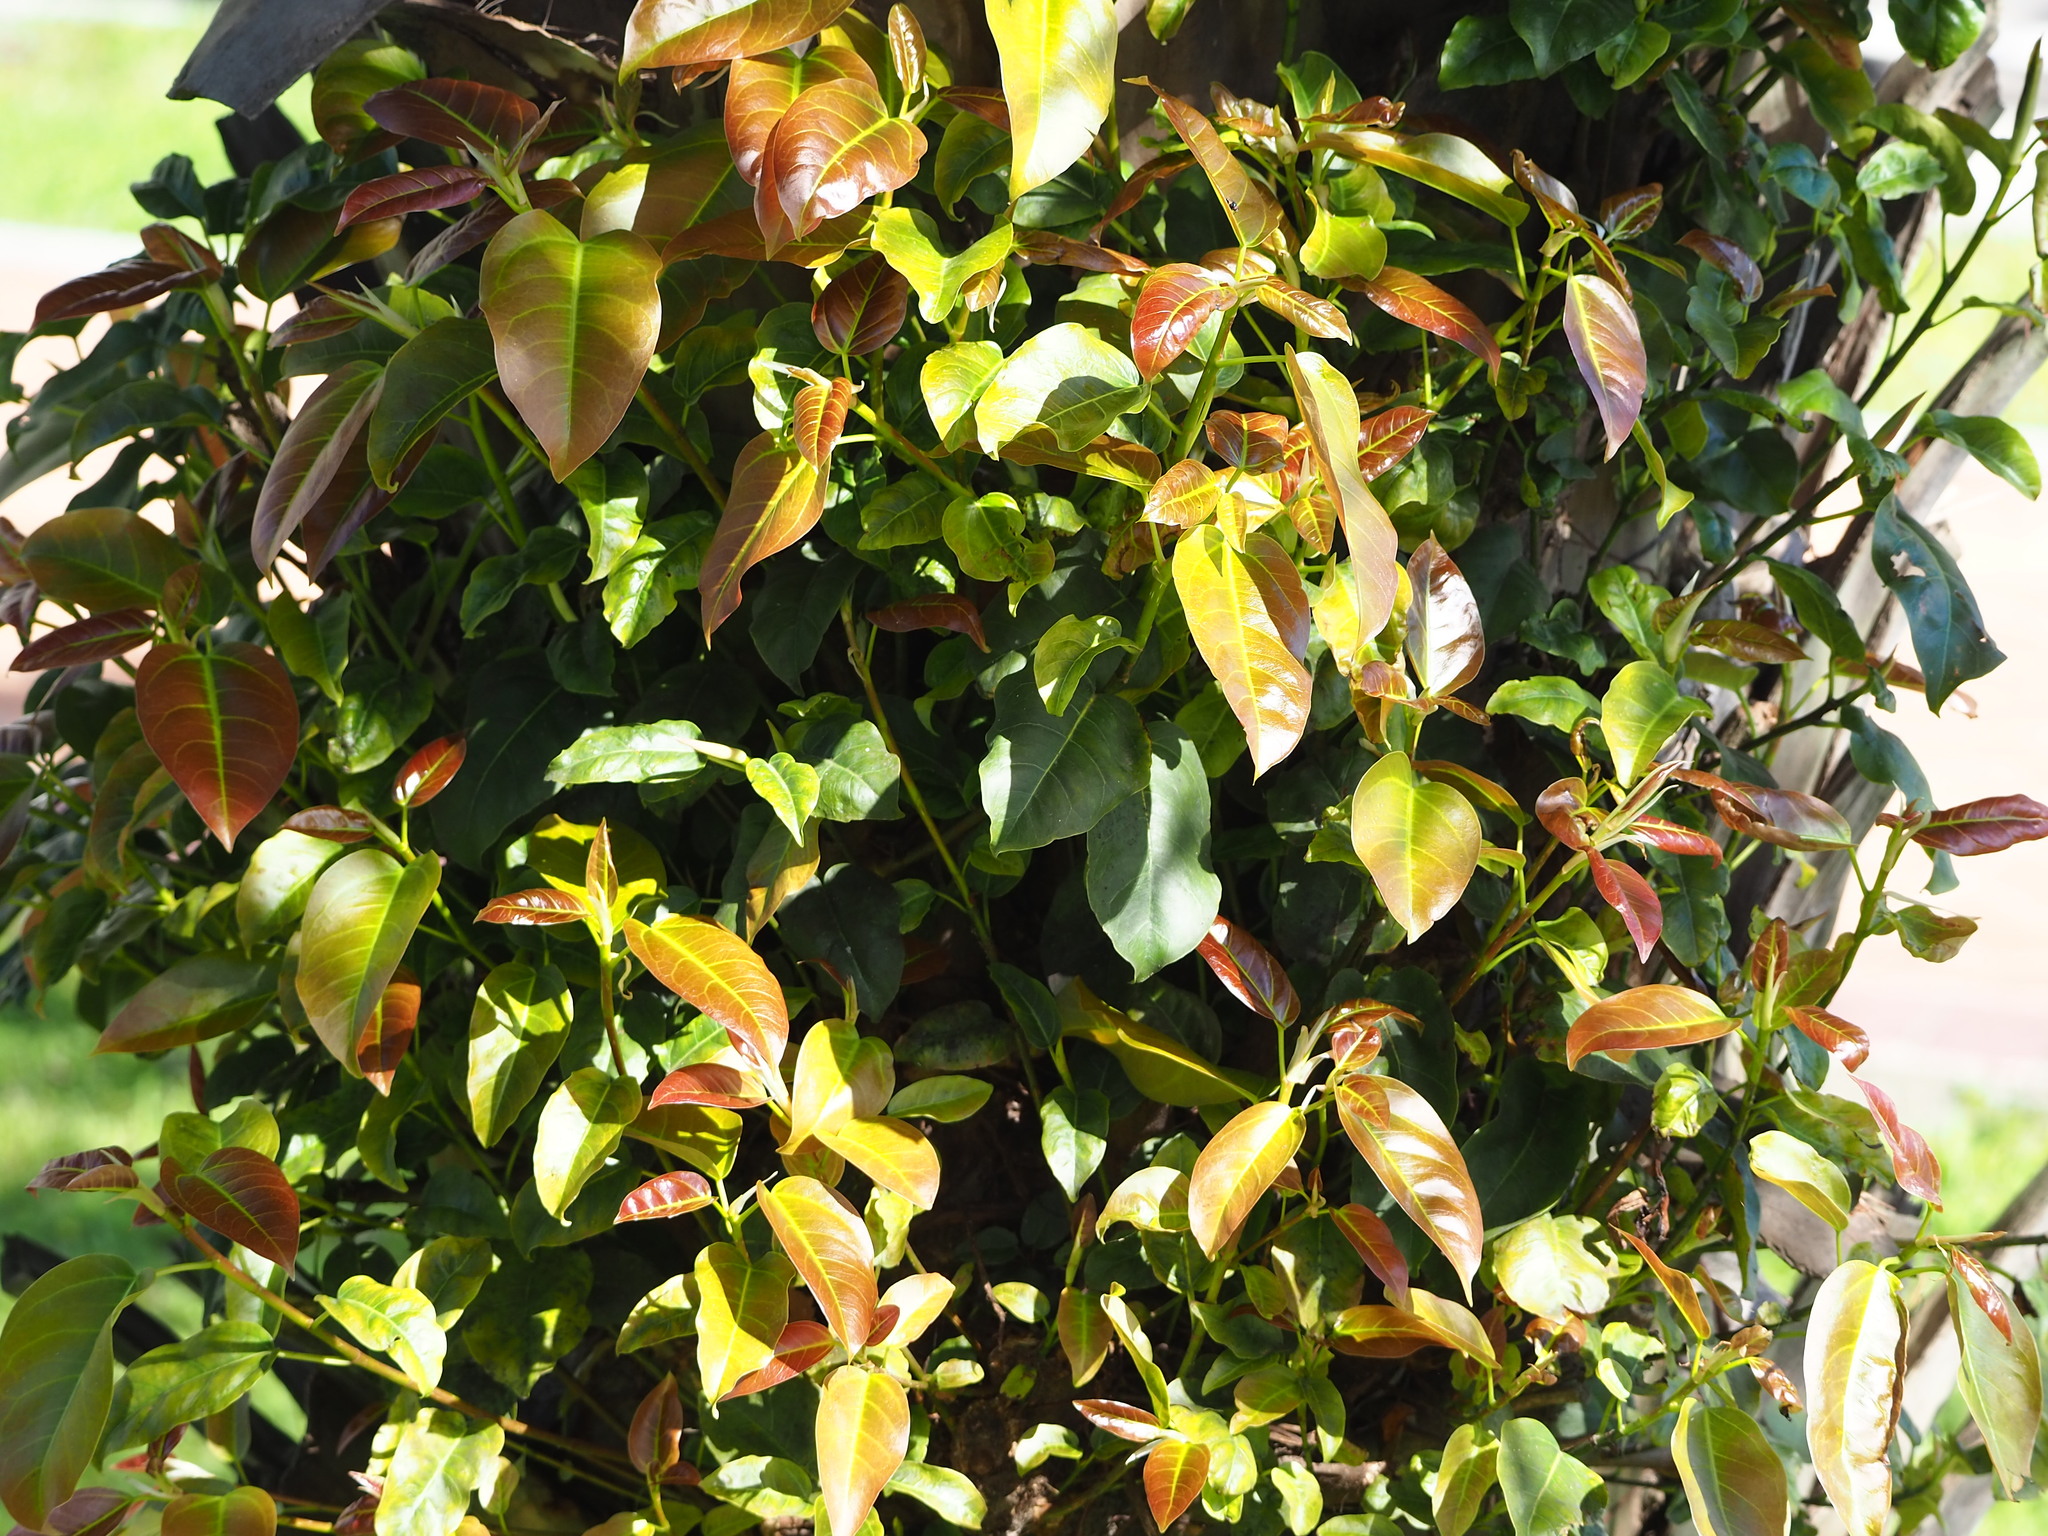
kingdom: Plantae
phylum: Tracheophyta
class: Magnoliopsida
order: Rosales
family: Moraceae
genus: Ficus
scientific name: Ficus subpisocarpa
